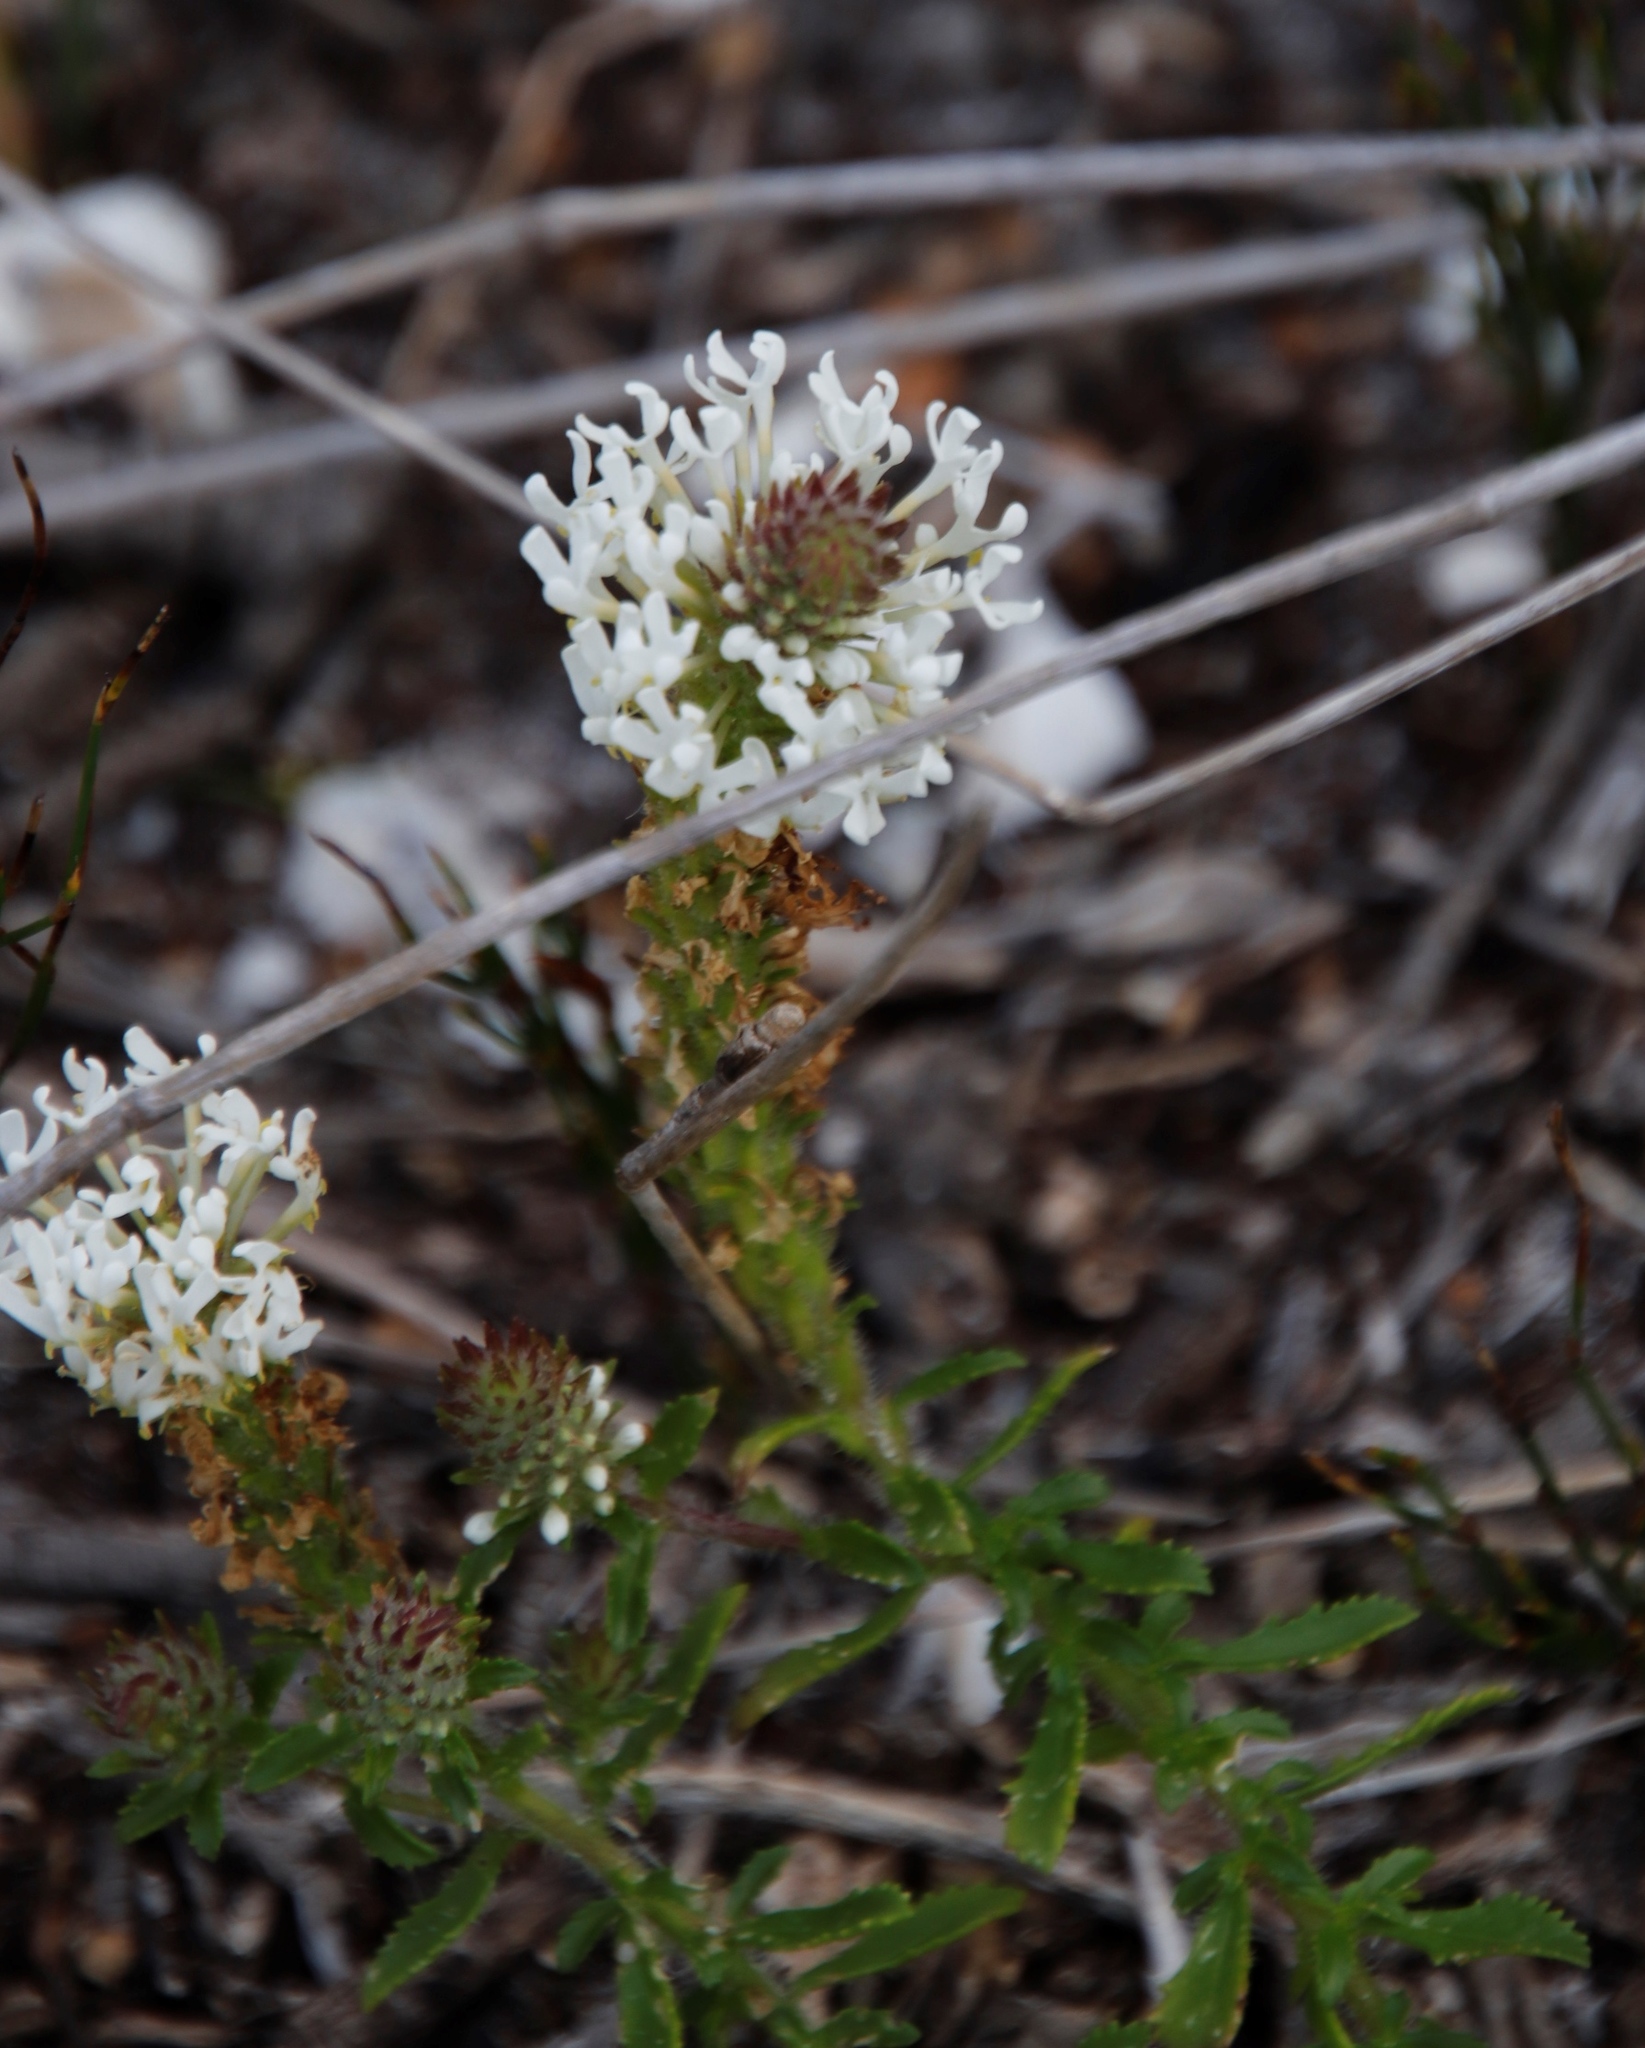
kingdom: Plantae
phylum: Tracheophyta
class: Magnoliopsida
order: Lamiales
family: Scrophulariaceae
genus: Dischisma
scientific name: Dischisma ciliatum
